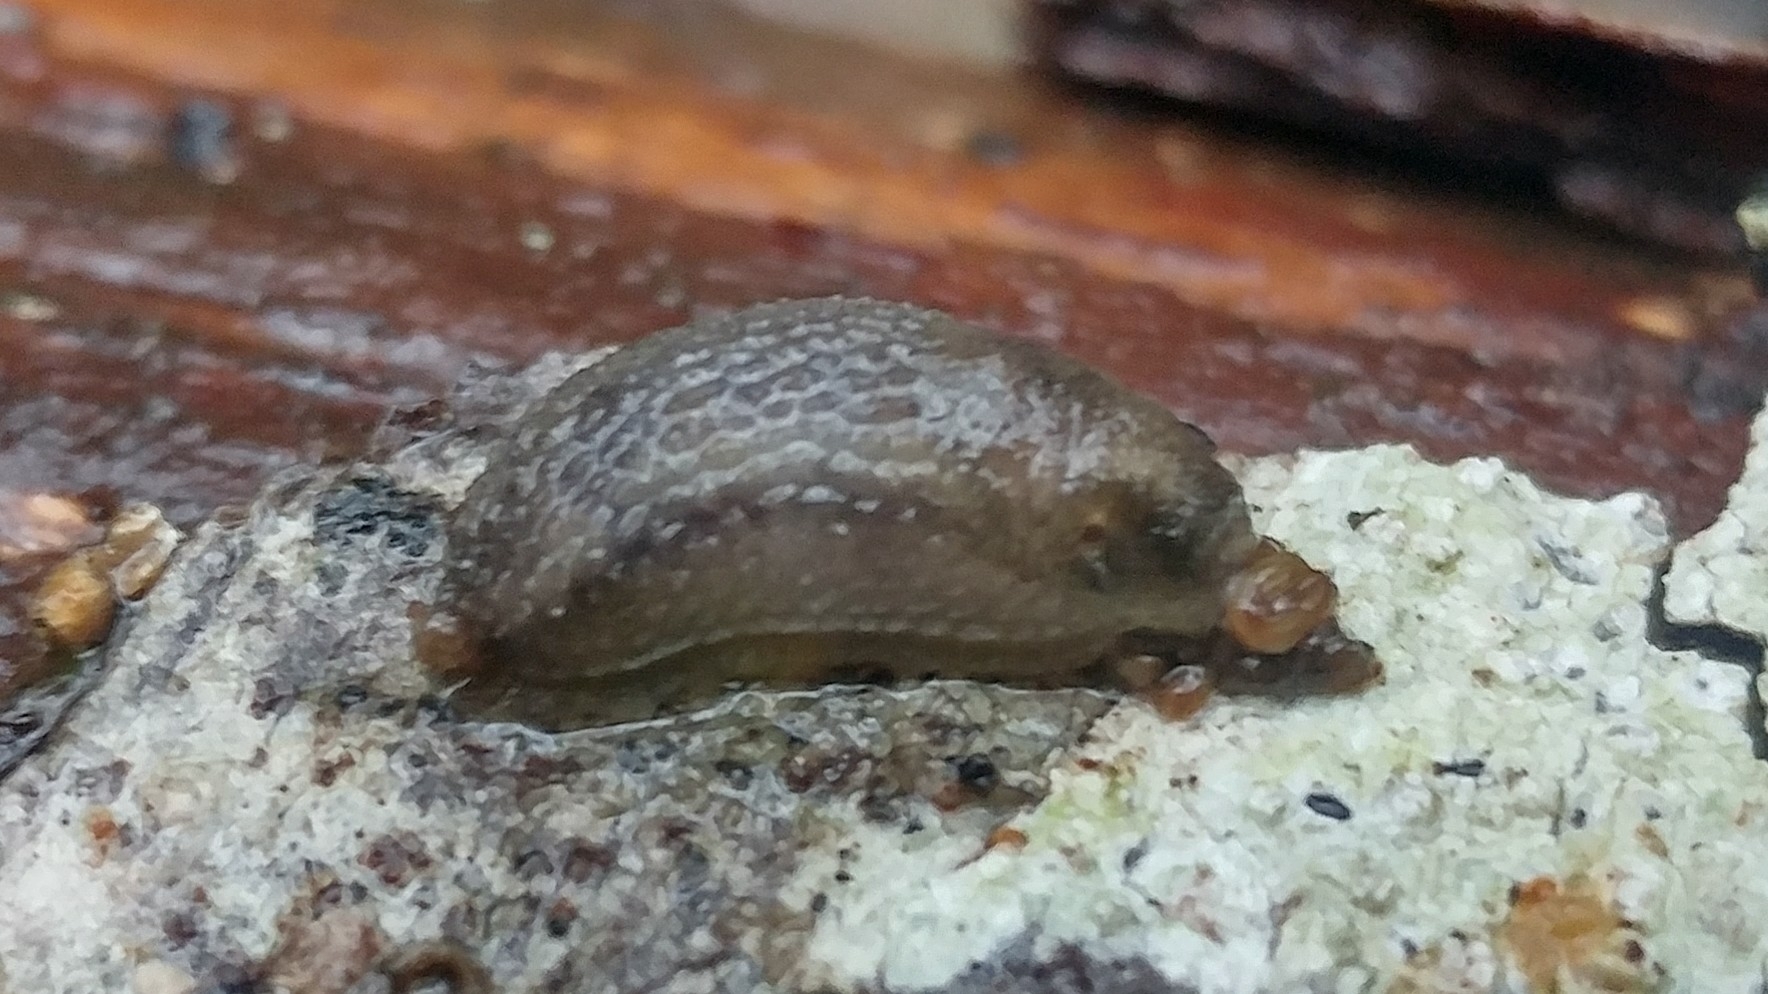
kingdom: Animalia
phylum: Mollusca
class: Gastropoda
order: Stylommatophora
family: Arionidae
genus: Arion
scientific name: Arion intermedius
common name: Hedgehog slug
